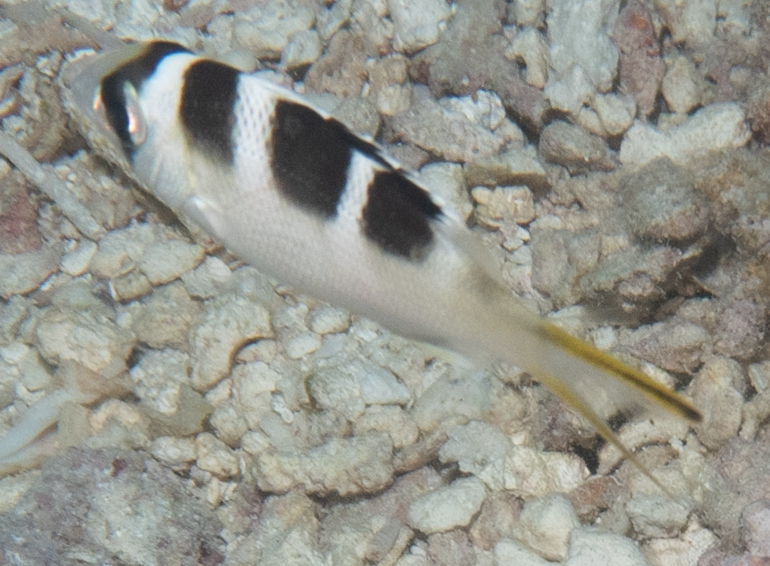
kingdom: Animalia
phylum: Chordata
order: Perciformes
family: Lethrinidae
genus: Monotaxis
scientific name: Monotaxis grandoculis
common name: Bigeye emperor
